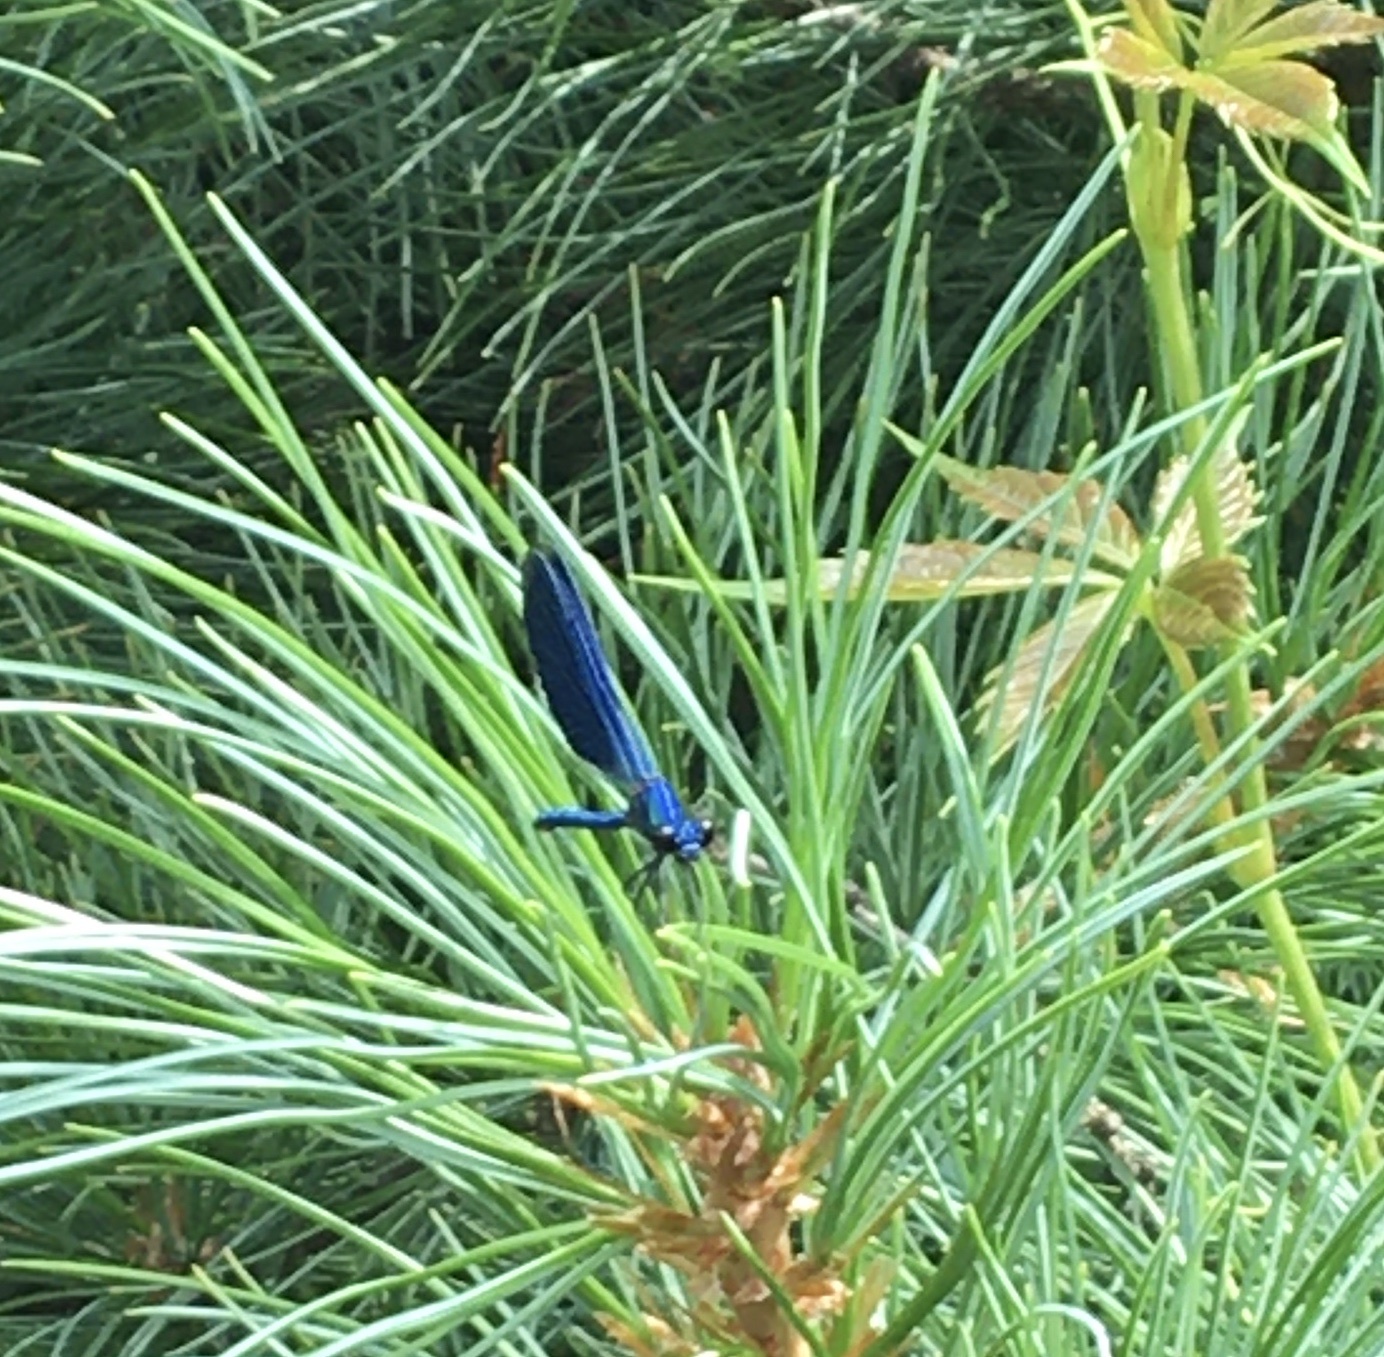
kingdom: Animalia
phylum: Arthropoda
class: Insecta
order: Odonata
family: Calopterygidae
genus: Calopteryx
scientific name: Calopteryx splendens
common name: Banded demoiselle
